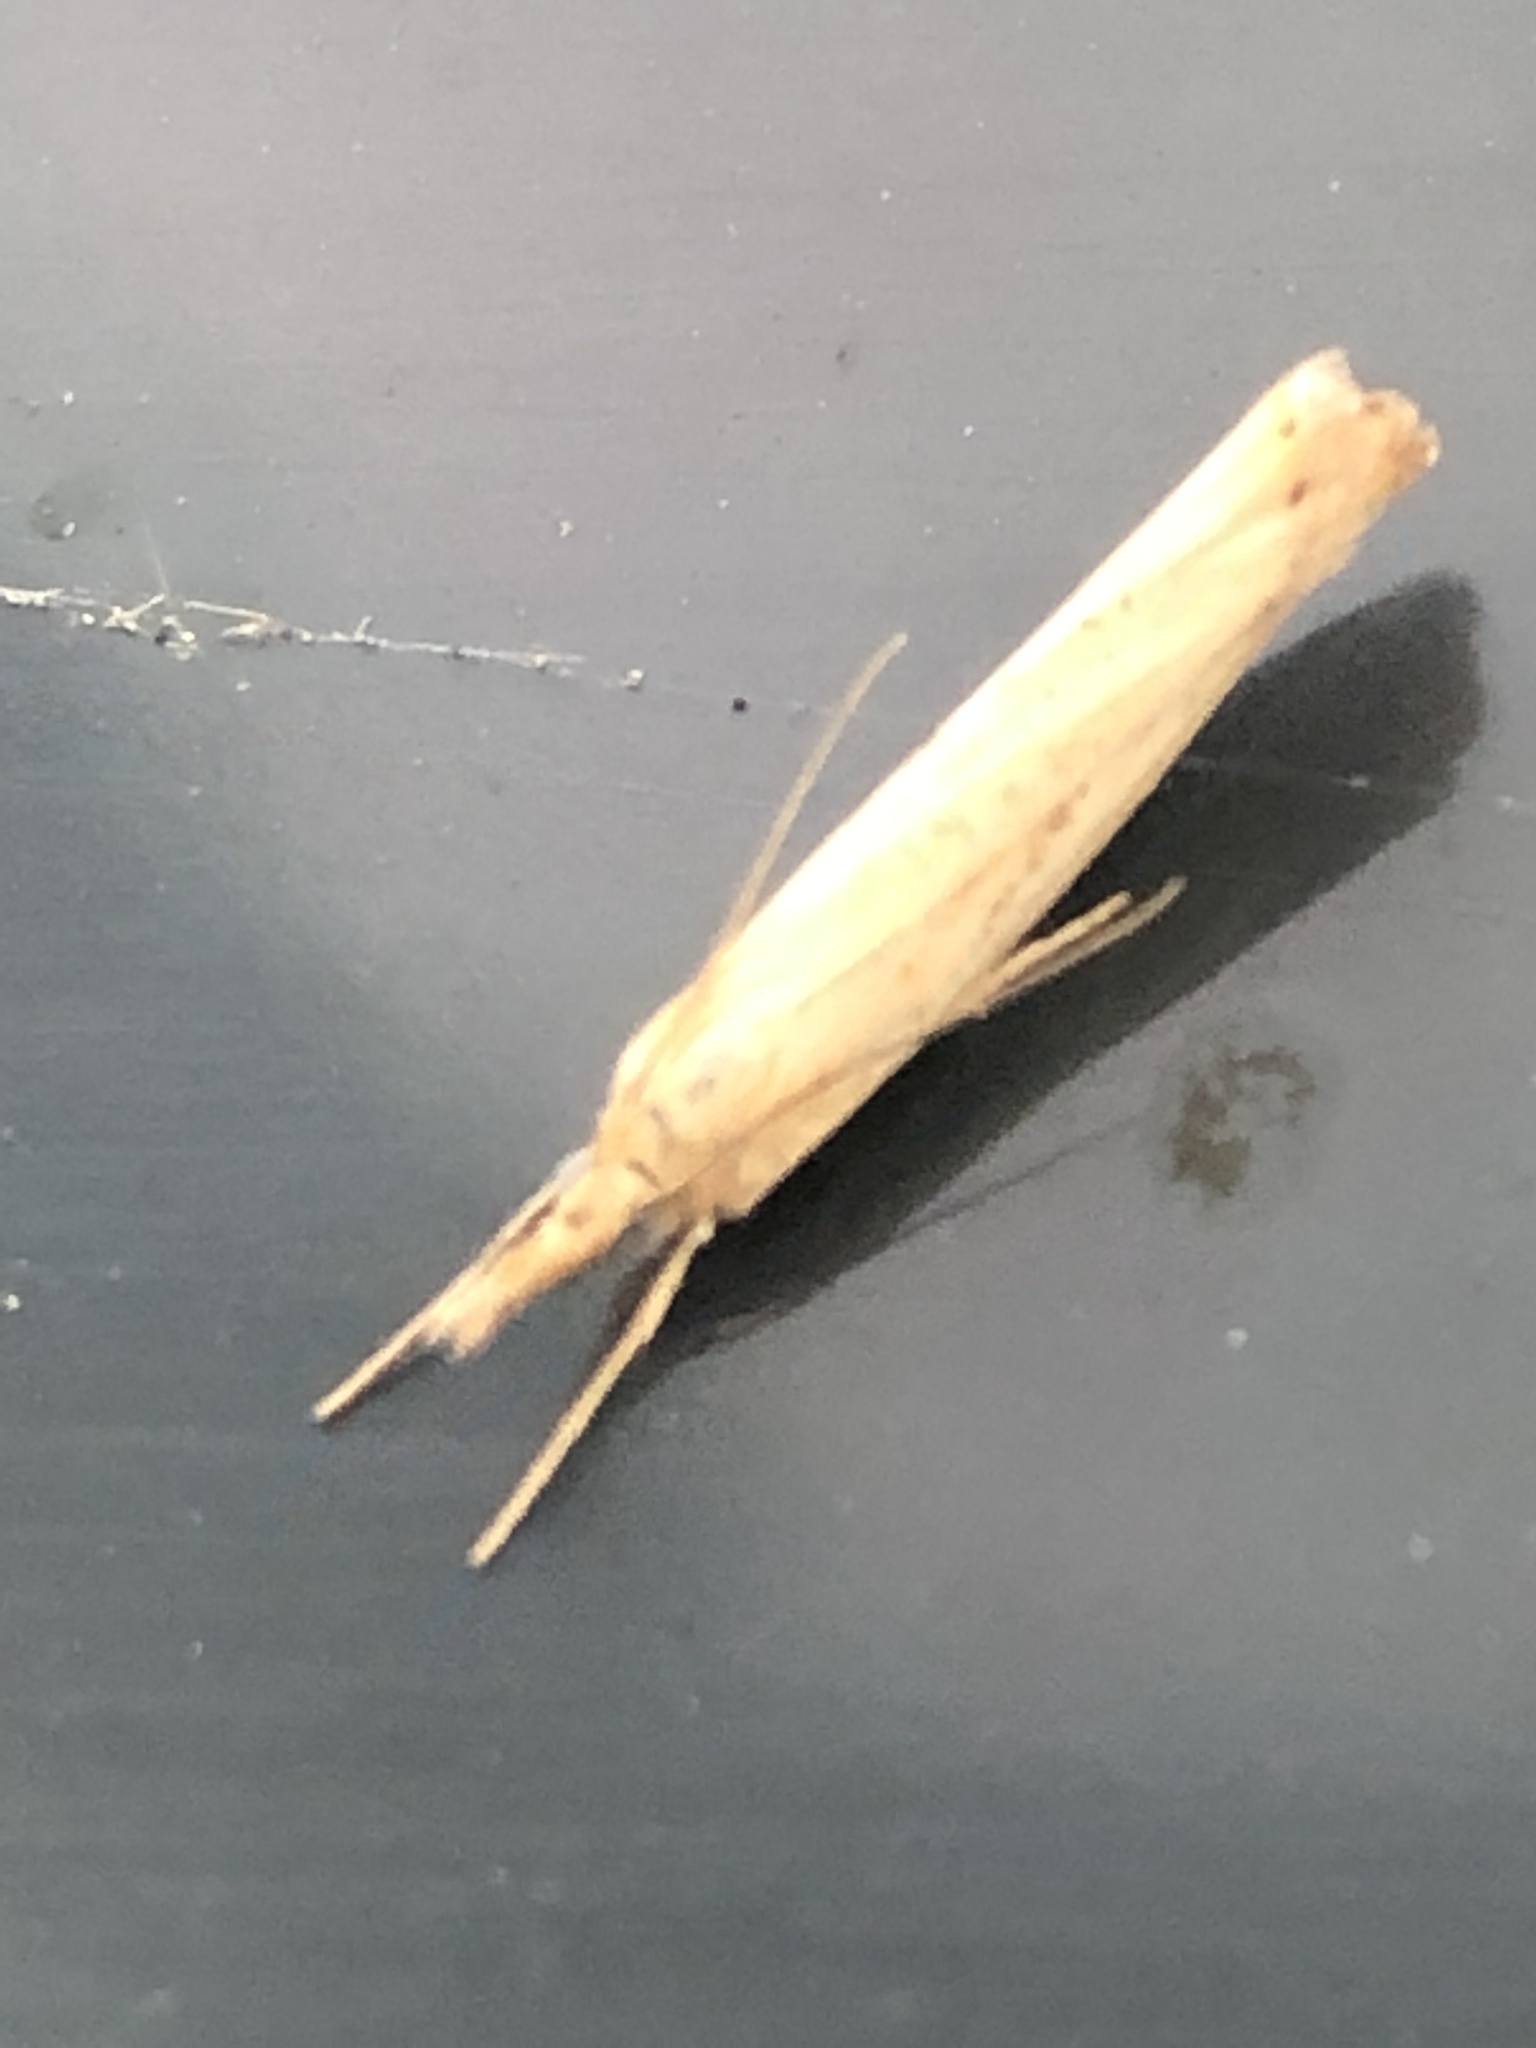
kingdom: Animalia
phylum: Arthropoda
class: Insecta
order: Lepidoptera
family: Crambidae
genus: Agriphila
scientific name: Agriphila tristellus
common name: Common grass-veneer
